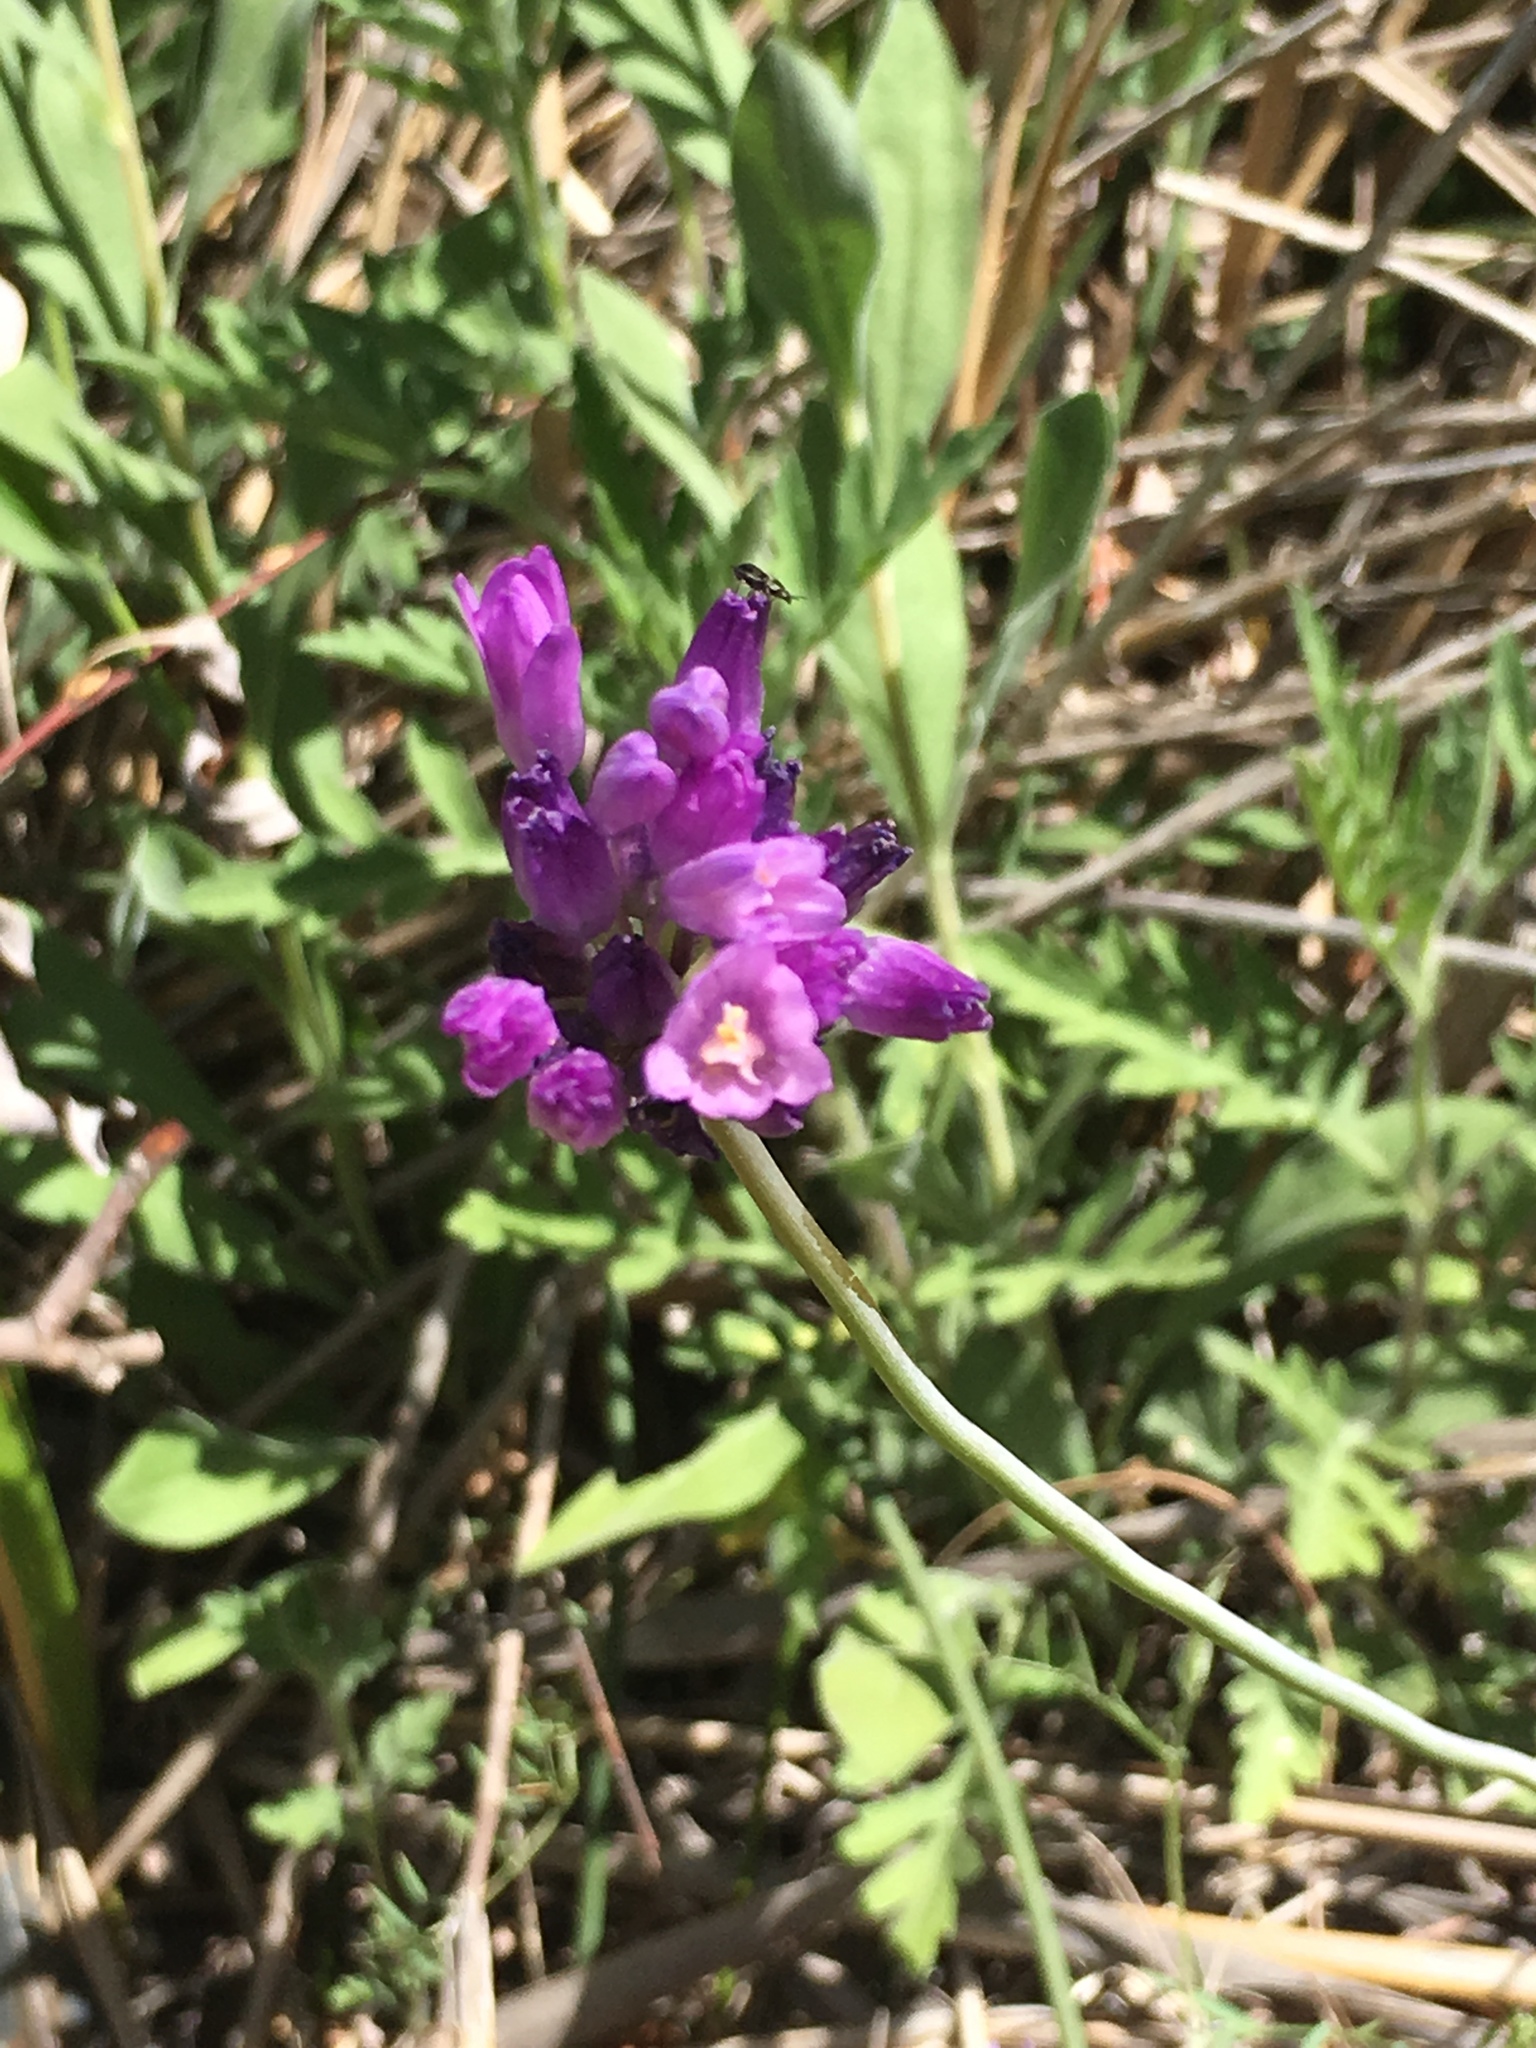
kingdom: Plantae
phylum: Tracheophyta
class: Liliopsida
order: Asparagales
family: Asparagaceae
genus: Dipterostemon
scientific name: Dipterostemon capitatus
